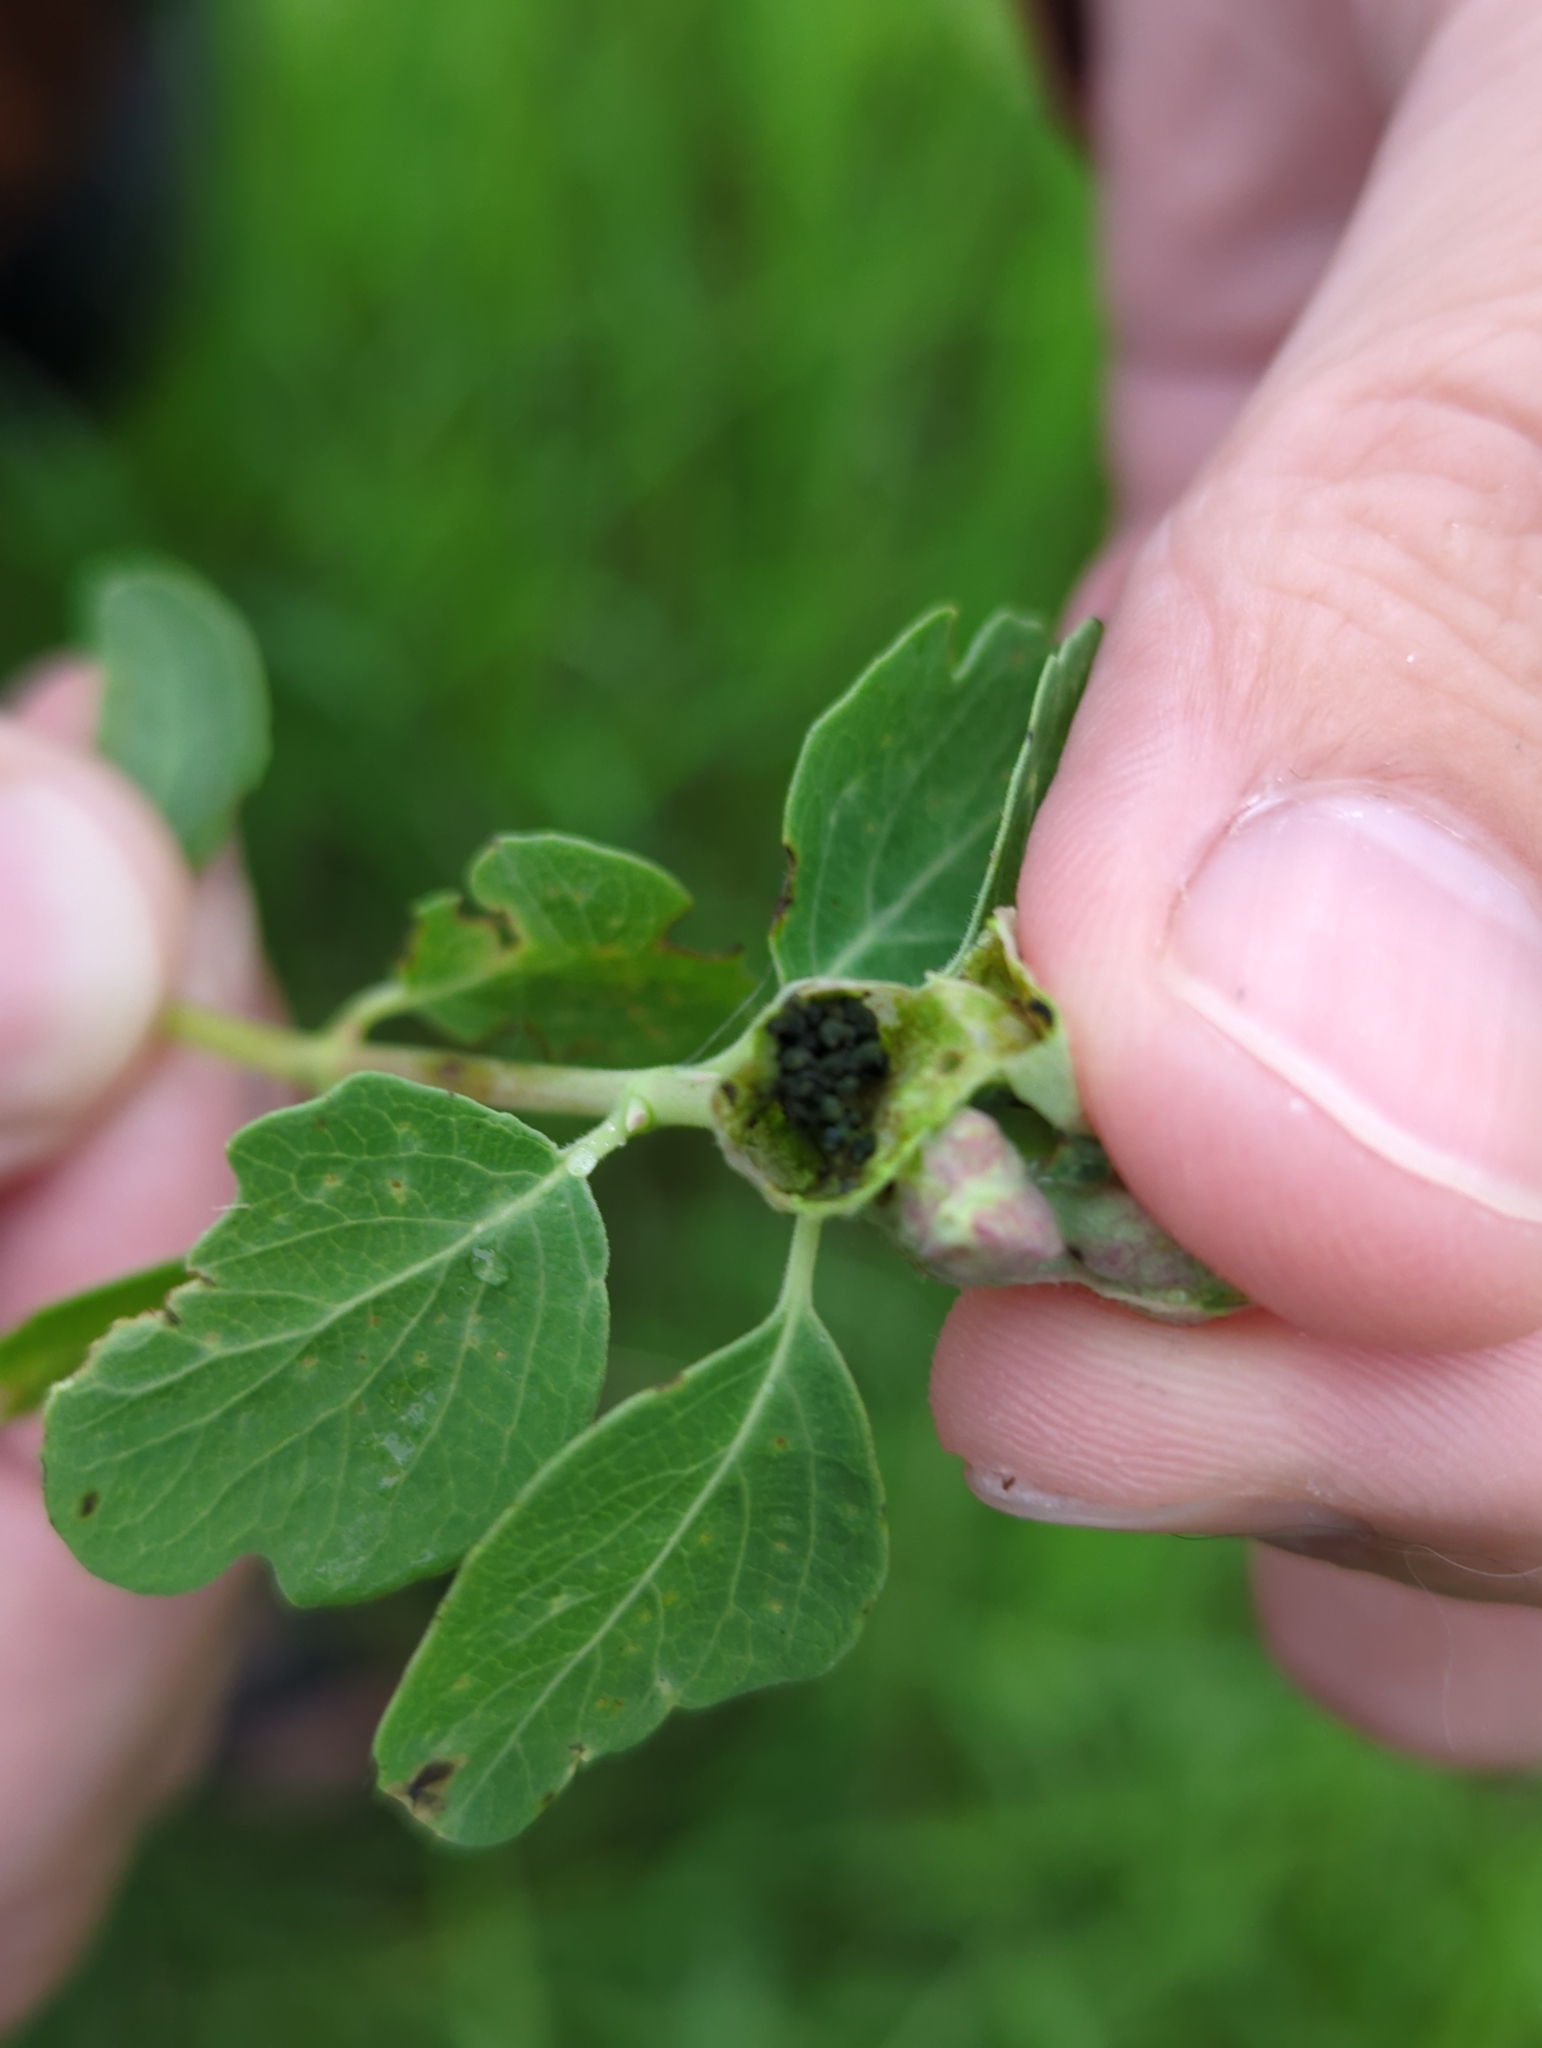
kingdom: Animalia
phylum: Arthropoda
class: Insecta
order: Hymenoptera
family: Tenthredinidae
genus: Blennogeneris
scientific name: Blennogeneris spissipes
